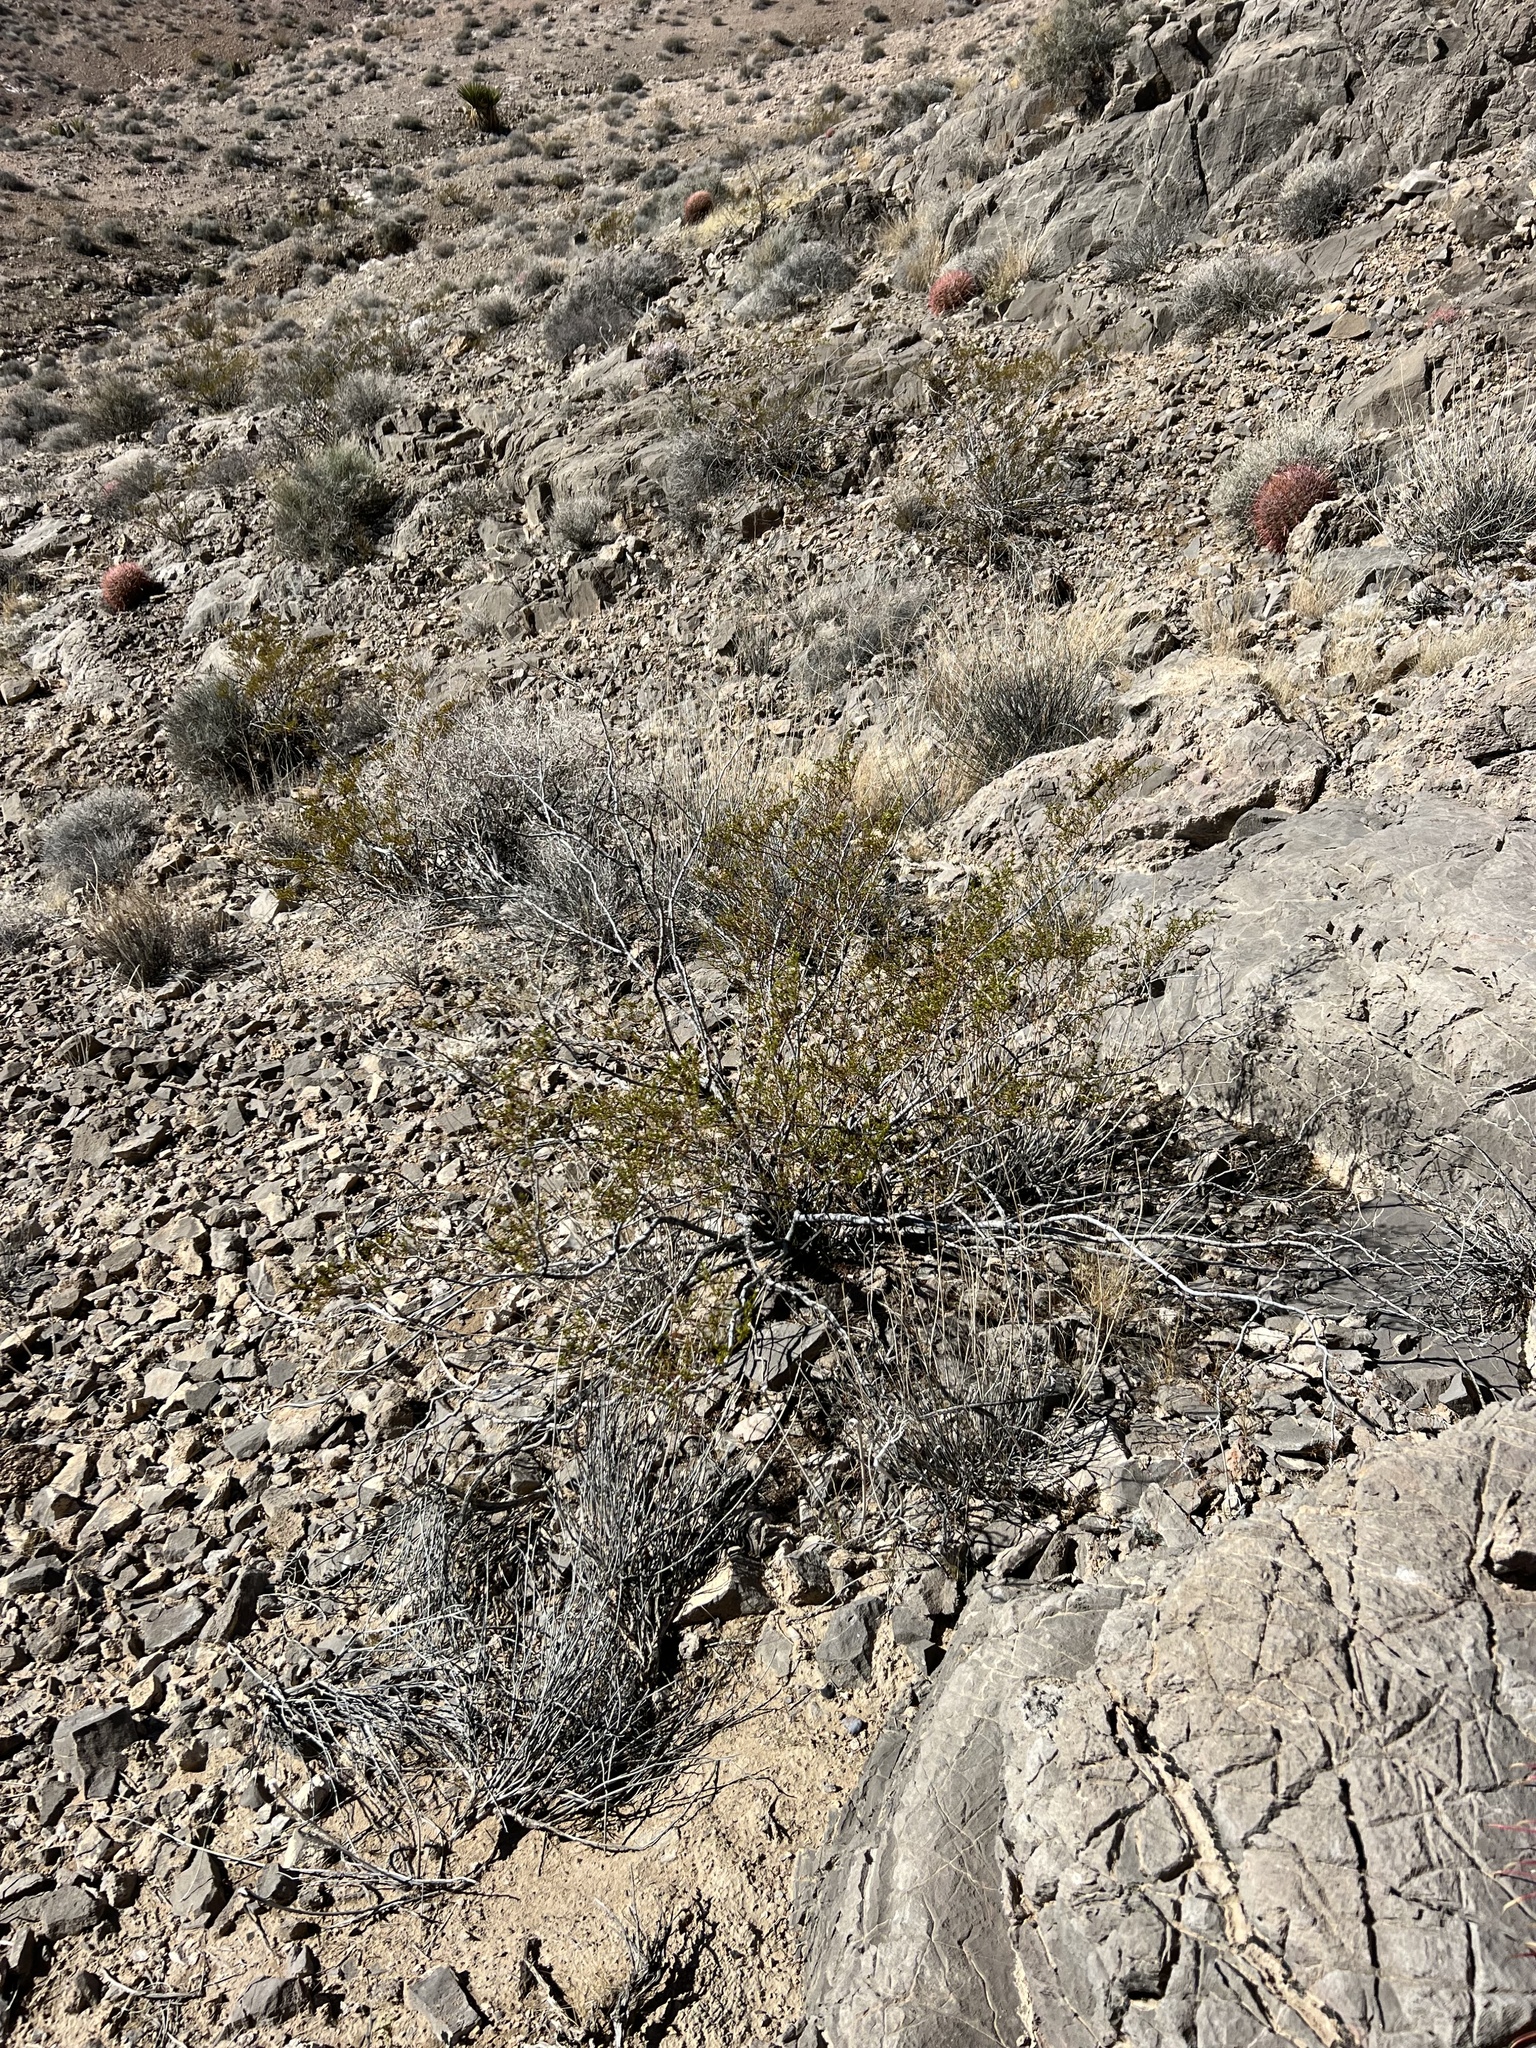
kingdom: Plantae
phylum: Tracheophyta
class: Magnoliopsida
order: Zygophyllales
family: Zygophyllaceae
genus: Larrea
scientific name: Larrea tridentata
